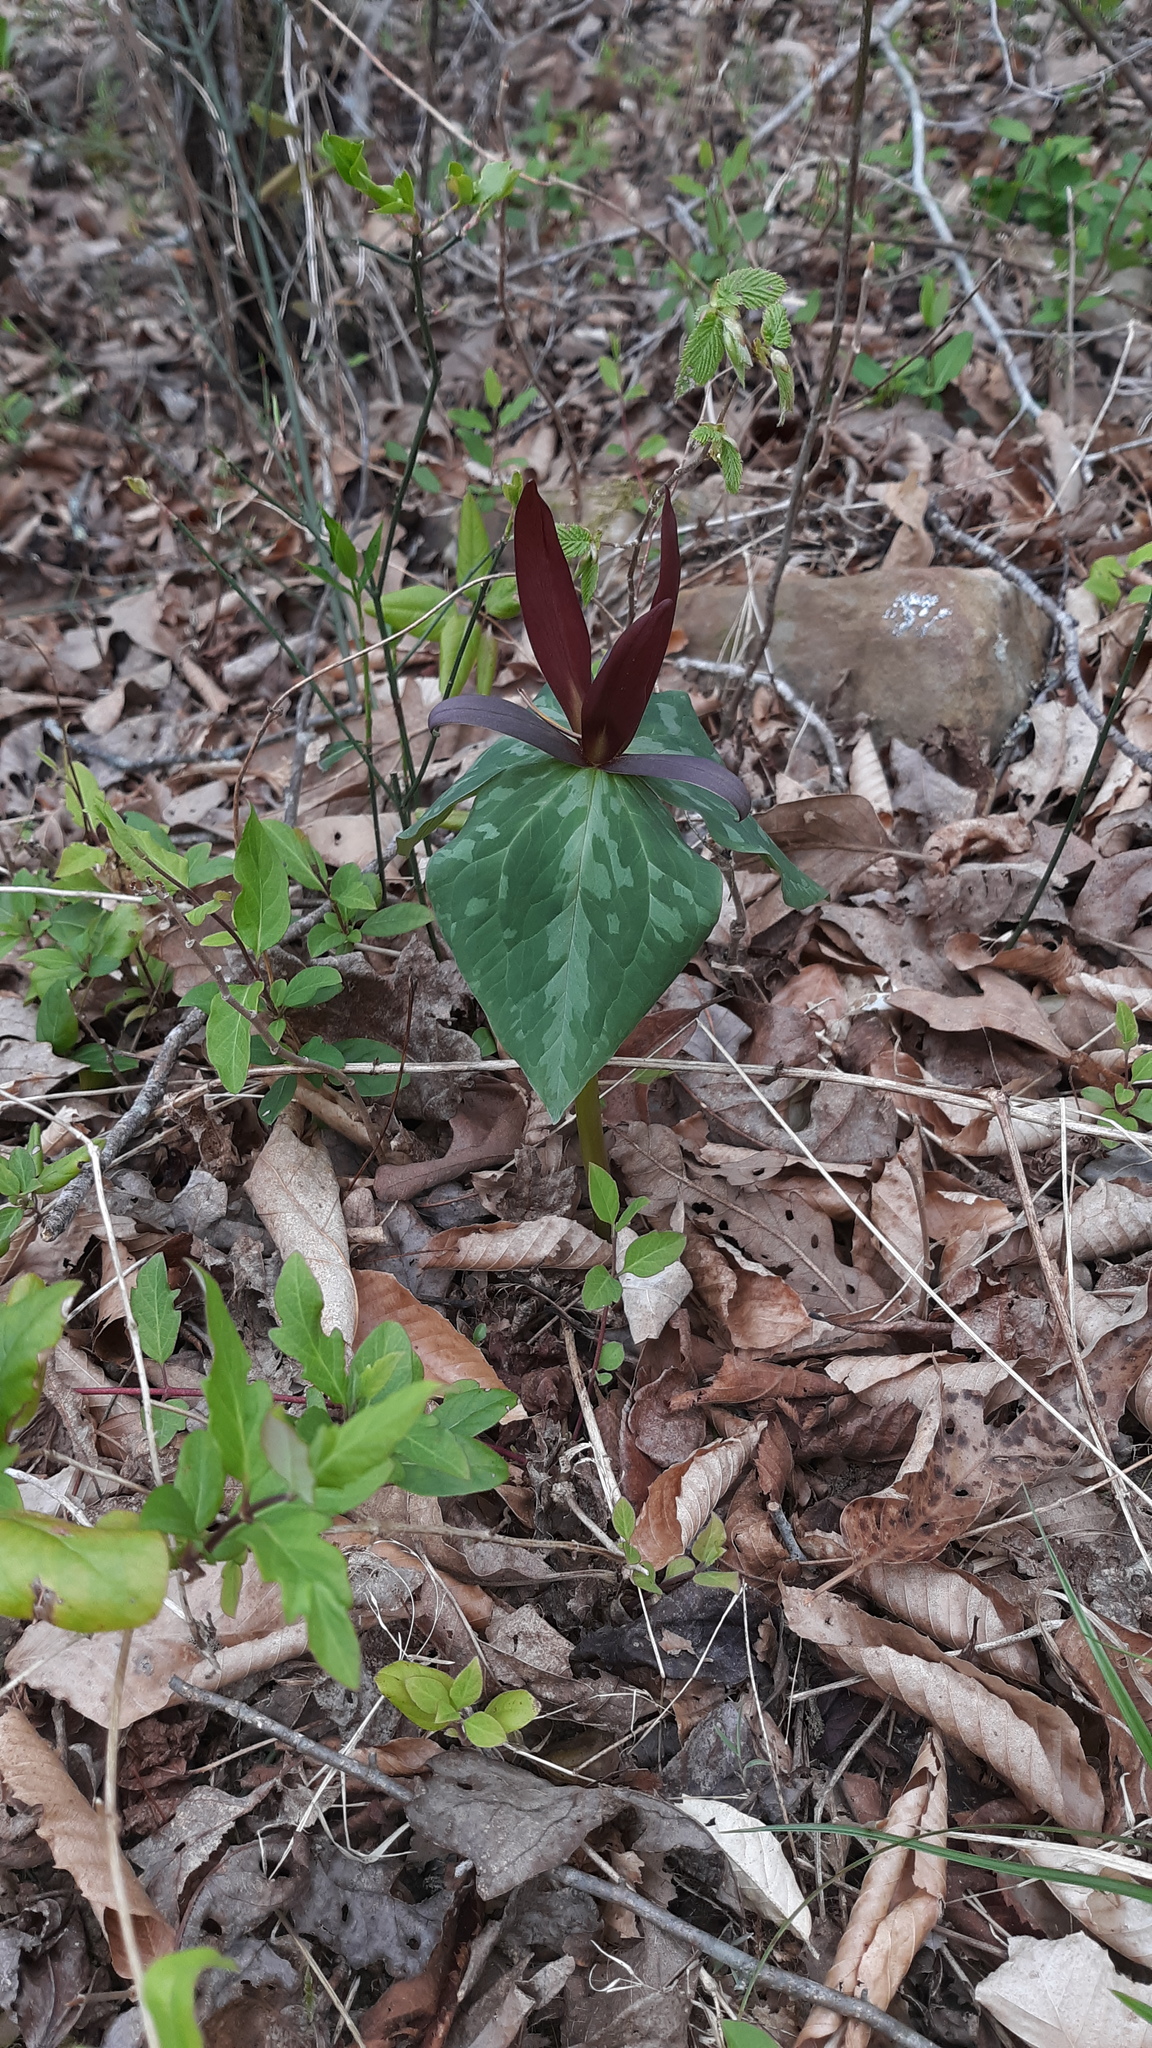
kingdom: Plantae
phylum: Tracheophyta
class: Liliopsida
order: Liliales
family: Melanthiaceae
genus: Trillium
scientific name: Trillium cuneatum
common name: Cuneate trillium
